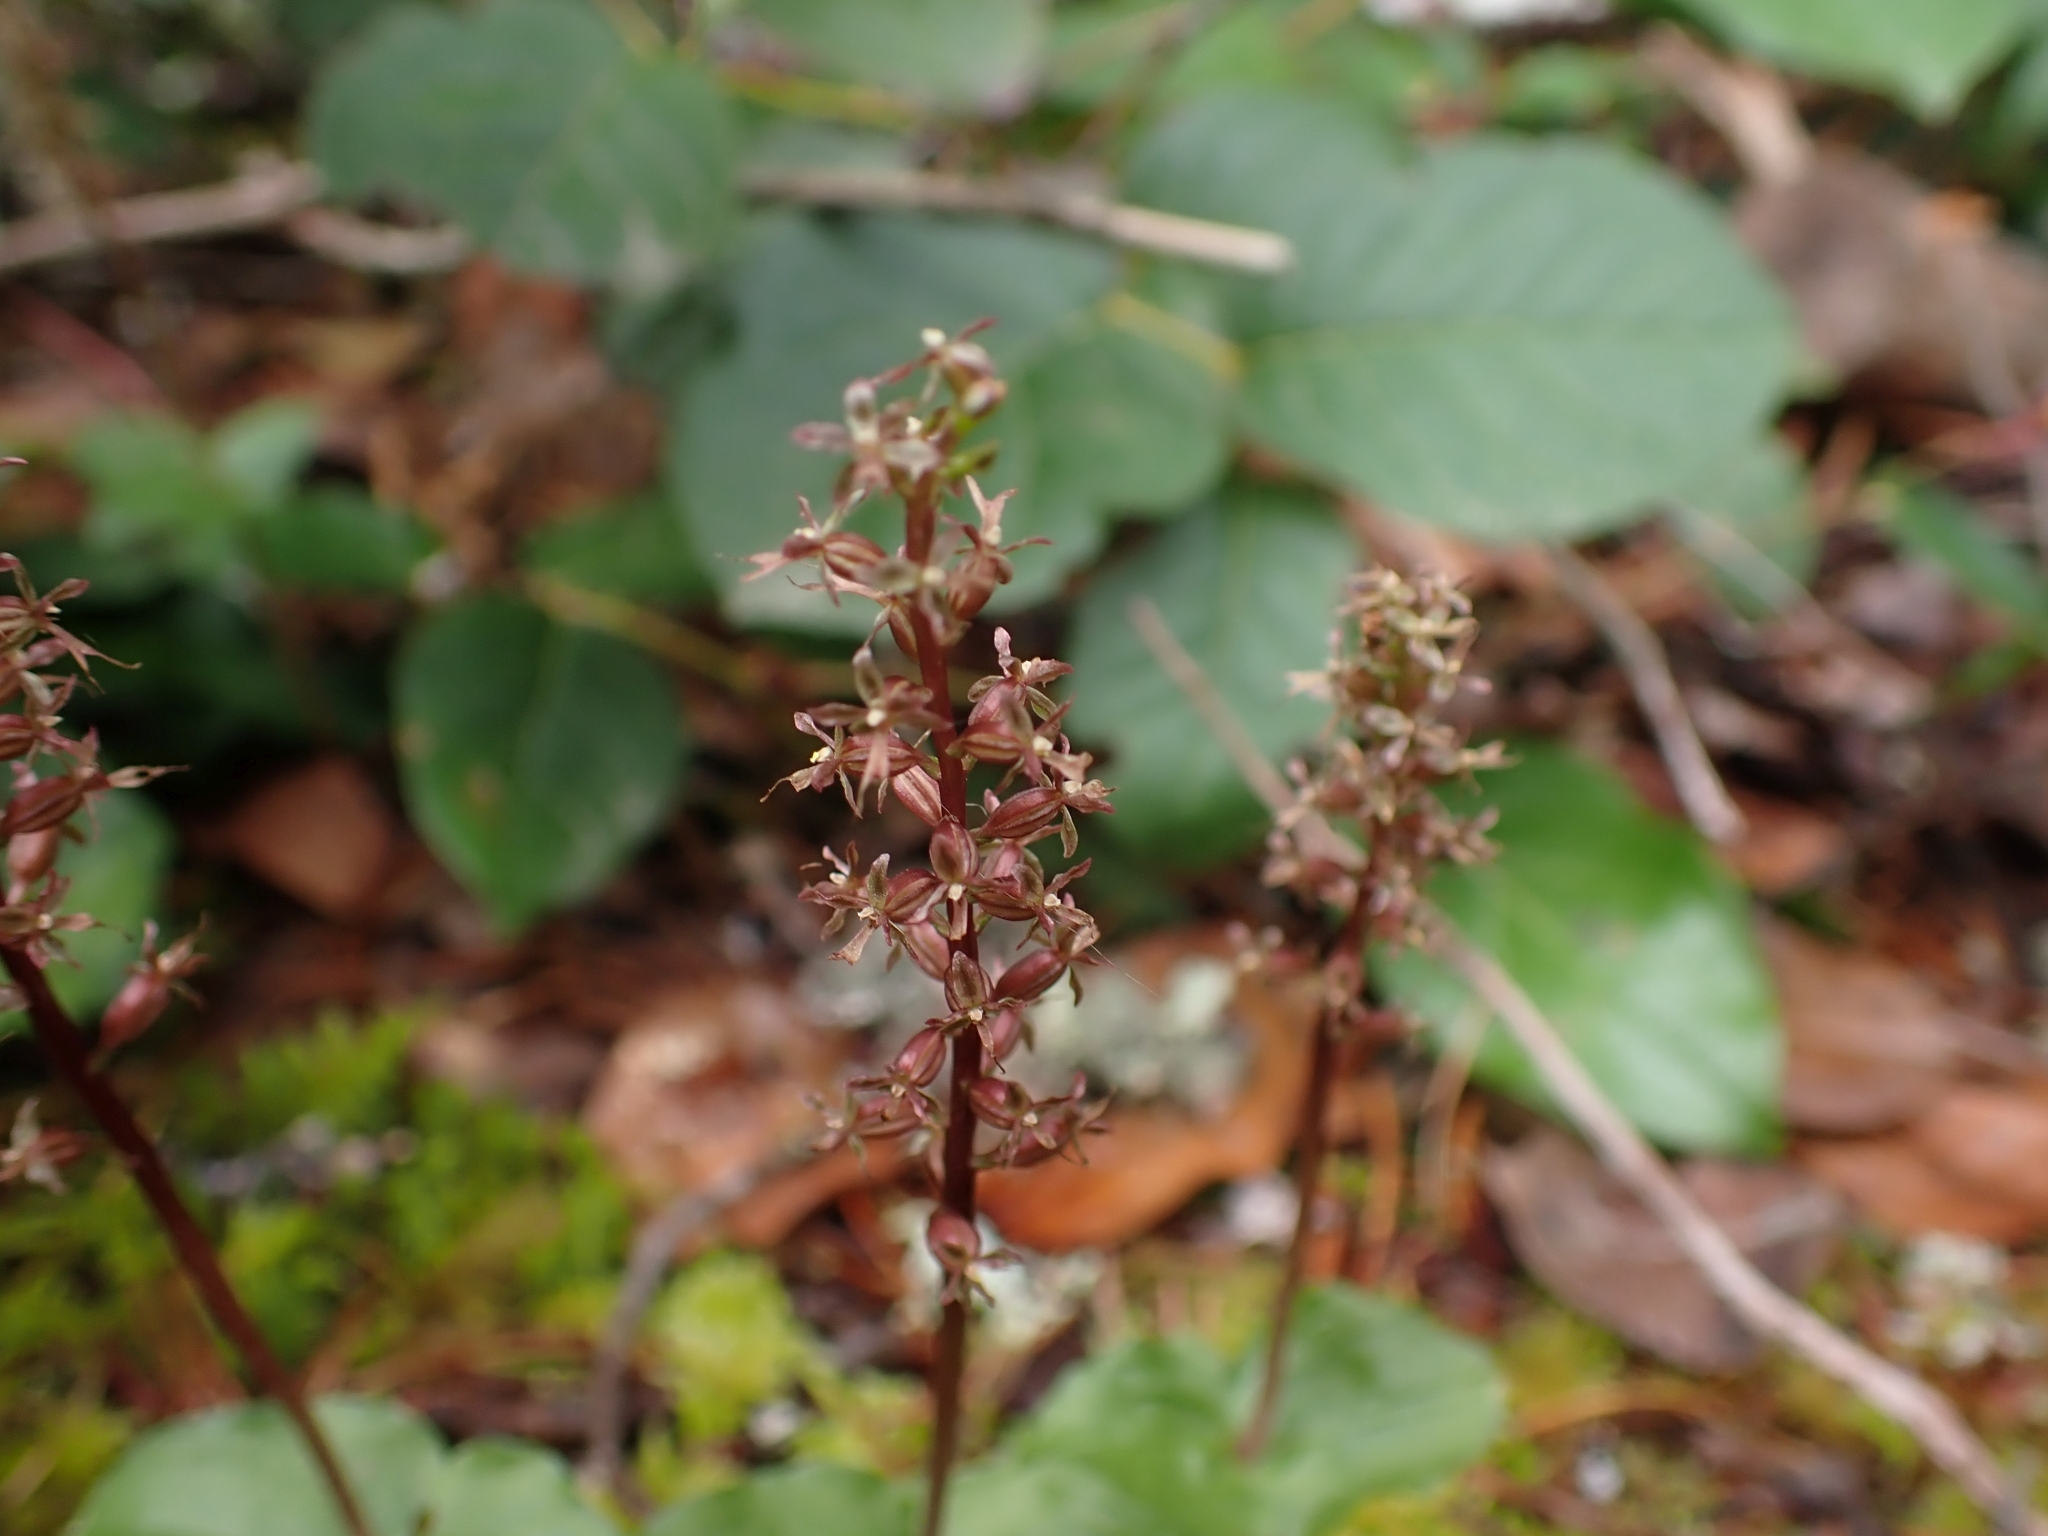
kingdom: Plantae
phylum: Tracheophyta
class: Liliopsida
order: Asparagales
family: Orchidaceae
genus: Neottia
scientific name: Neottia cordata
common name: Lesser twayblade
